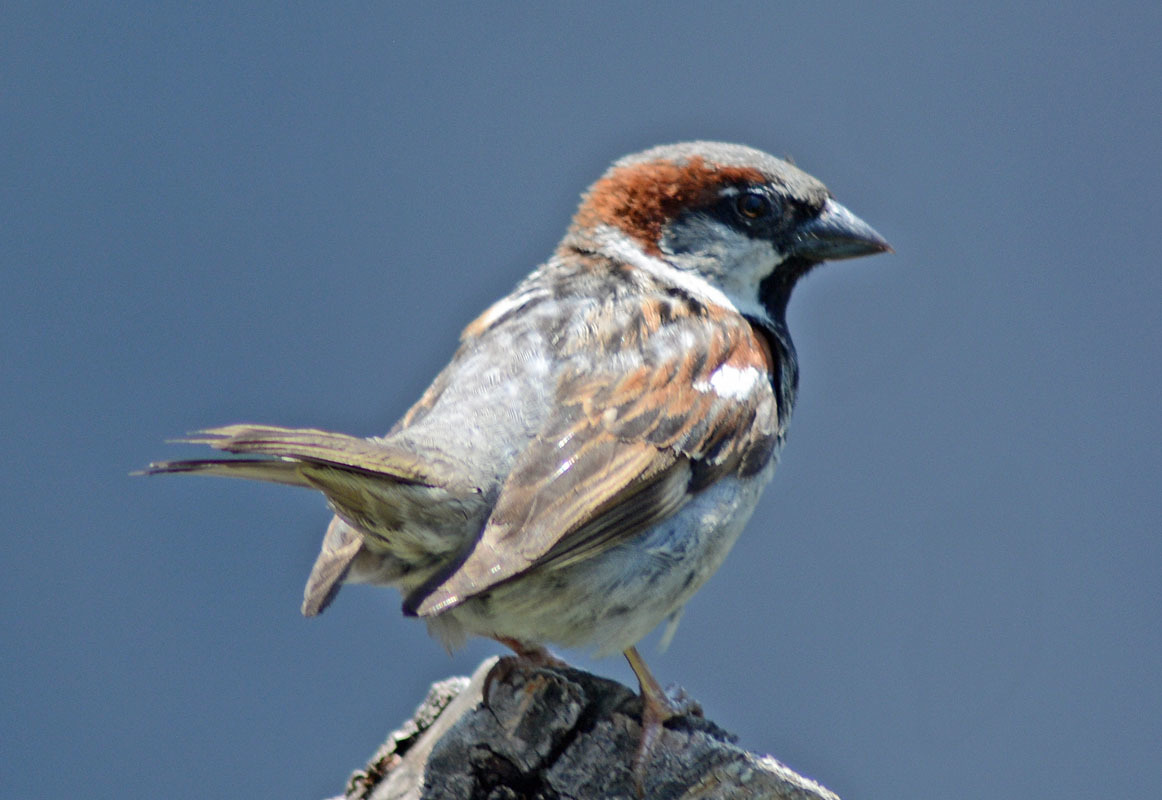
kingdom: Animalia
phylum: Chordata
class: Aves
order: Passeriformes
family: Passeridae
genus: Passer
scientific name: Passer domesticus
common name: House sparrow
